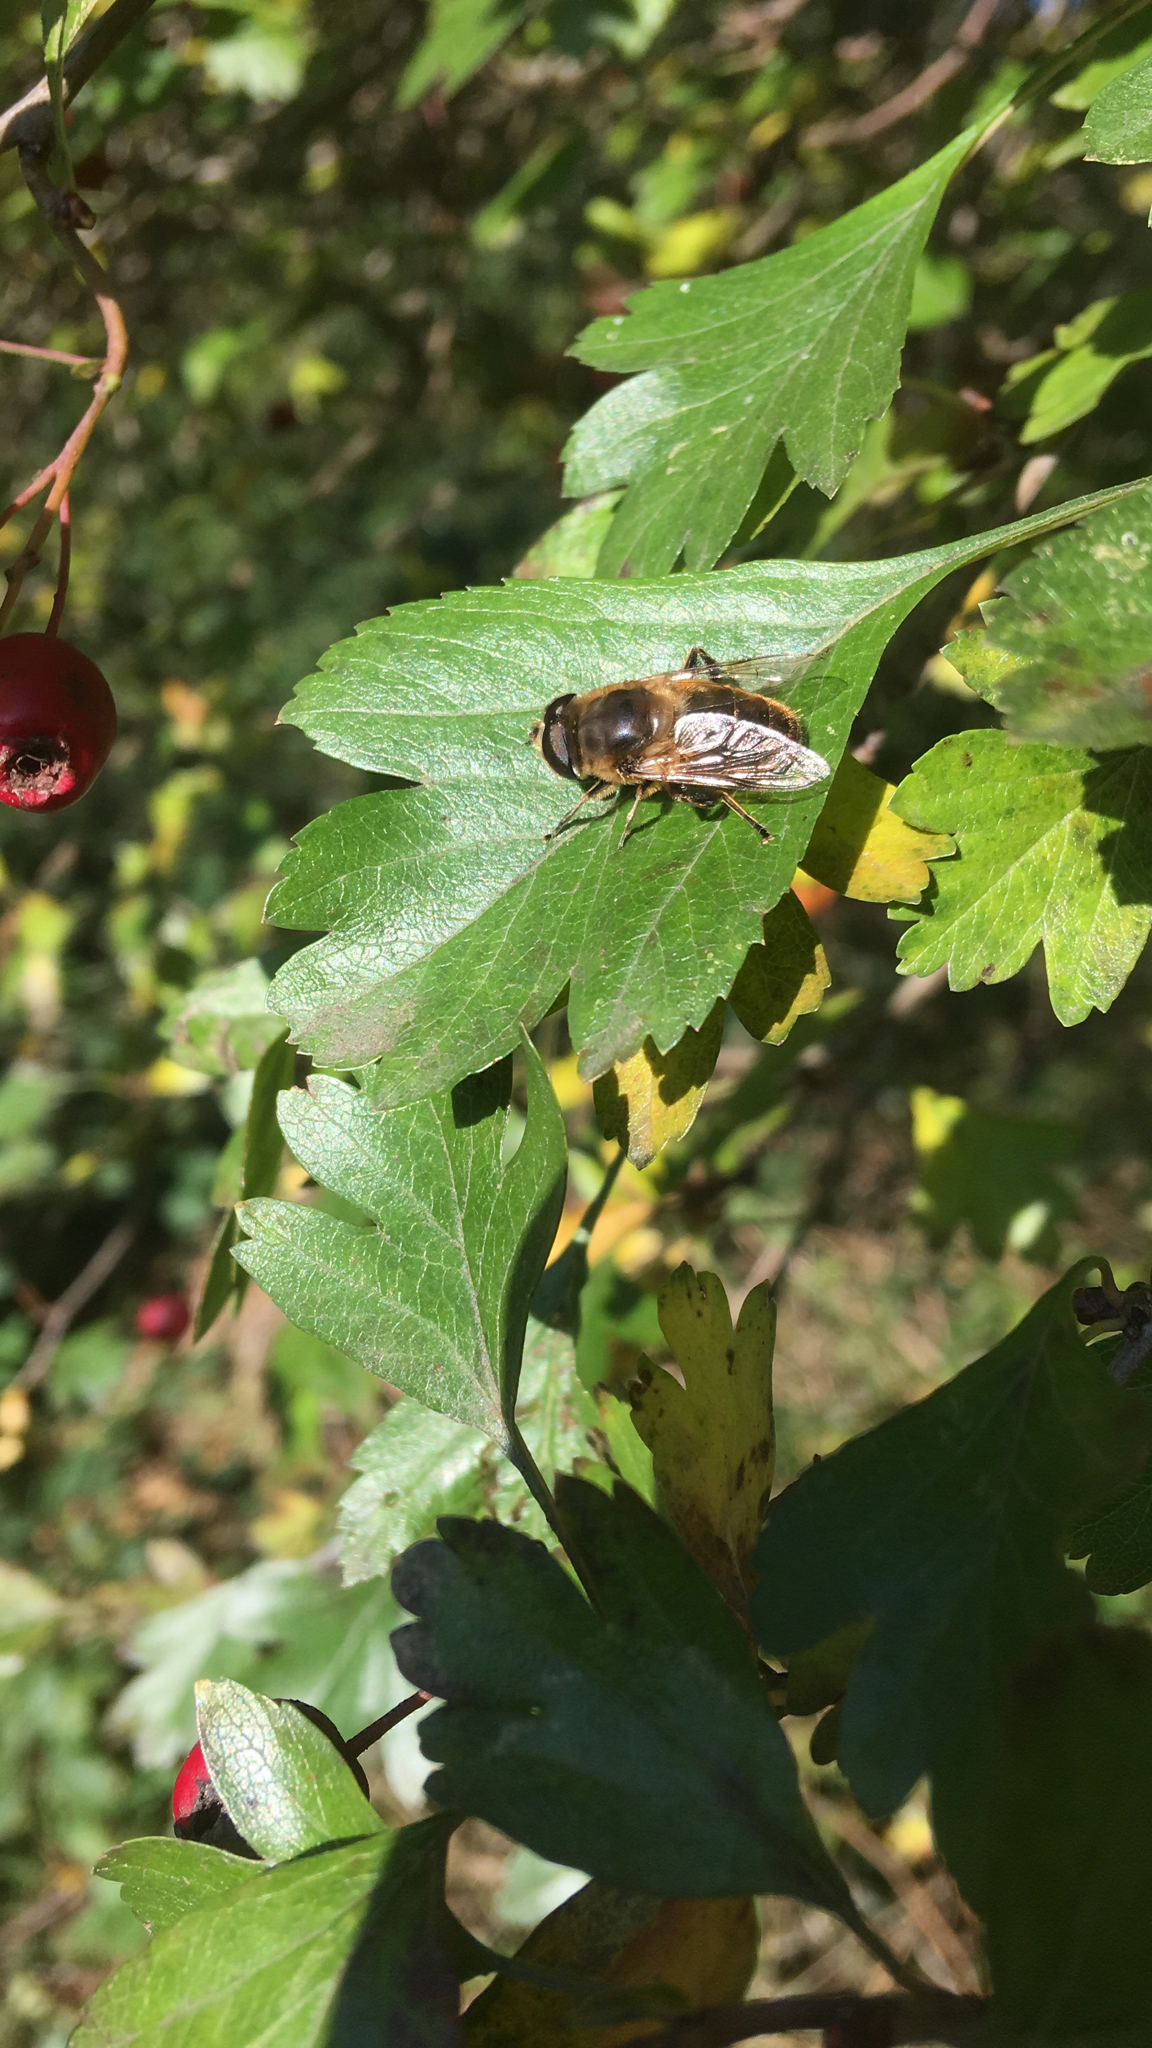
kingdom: Animalia
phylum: Arthropoda
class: Insecta
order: Diptera
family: Syrphidae
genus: Eristalis
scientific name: Eristalis tenax
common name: Drone fly
